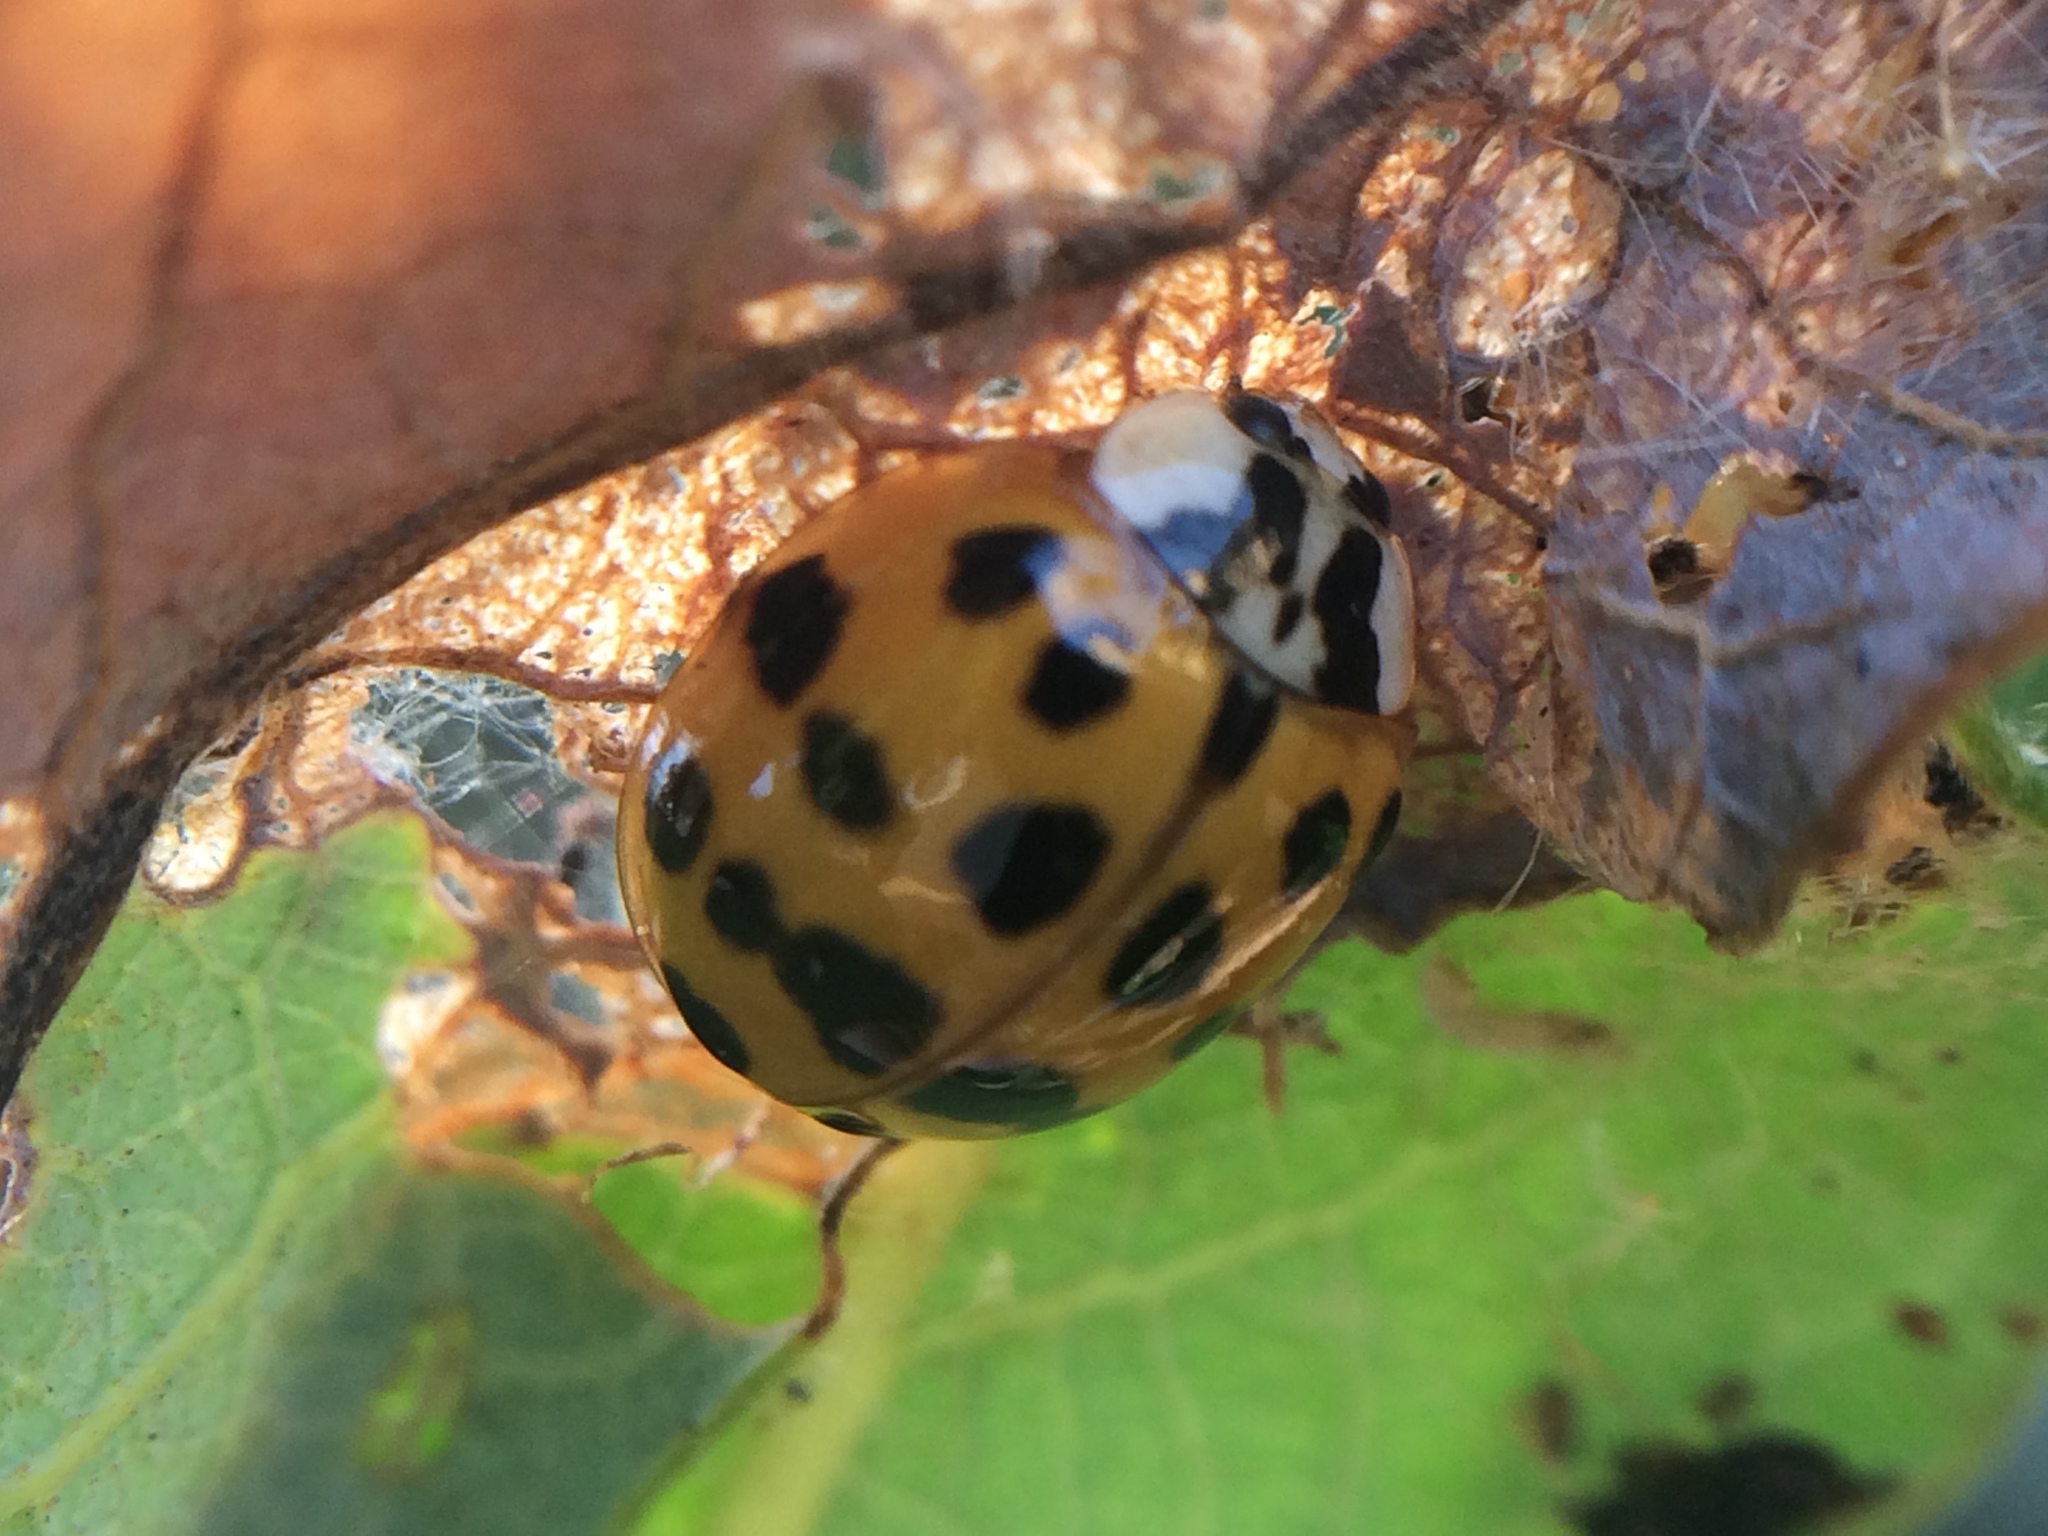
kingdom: Animalia
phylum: Arthropoda
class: Insecta
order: Coleoptera
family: Coccinellidae
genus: Harmonia
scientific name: Harmonia axyridis
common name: Harlequin ladybird
